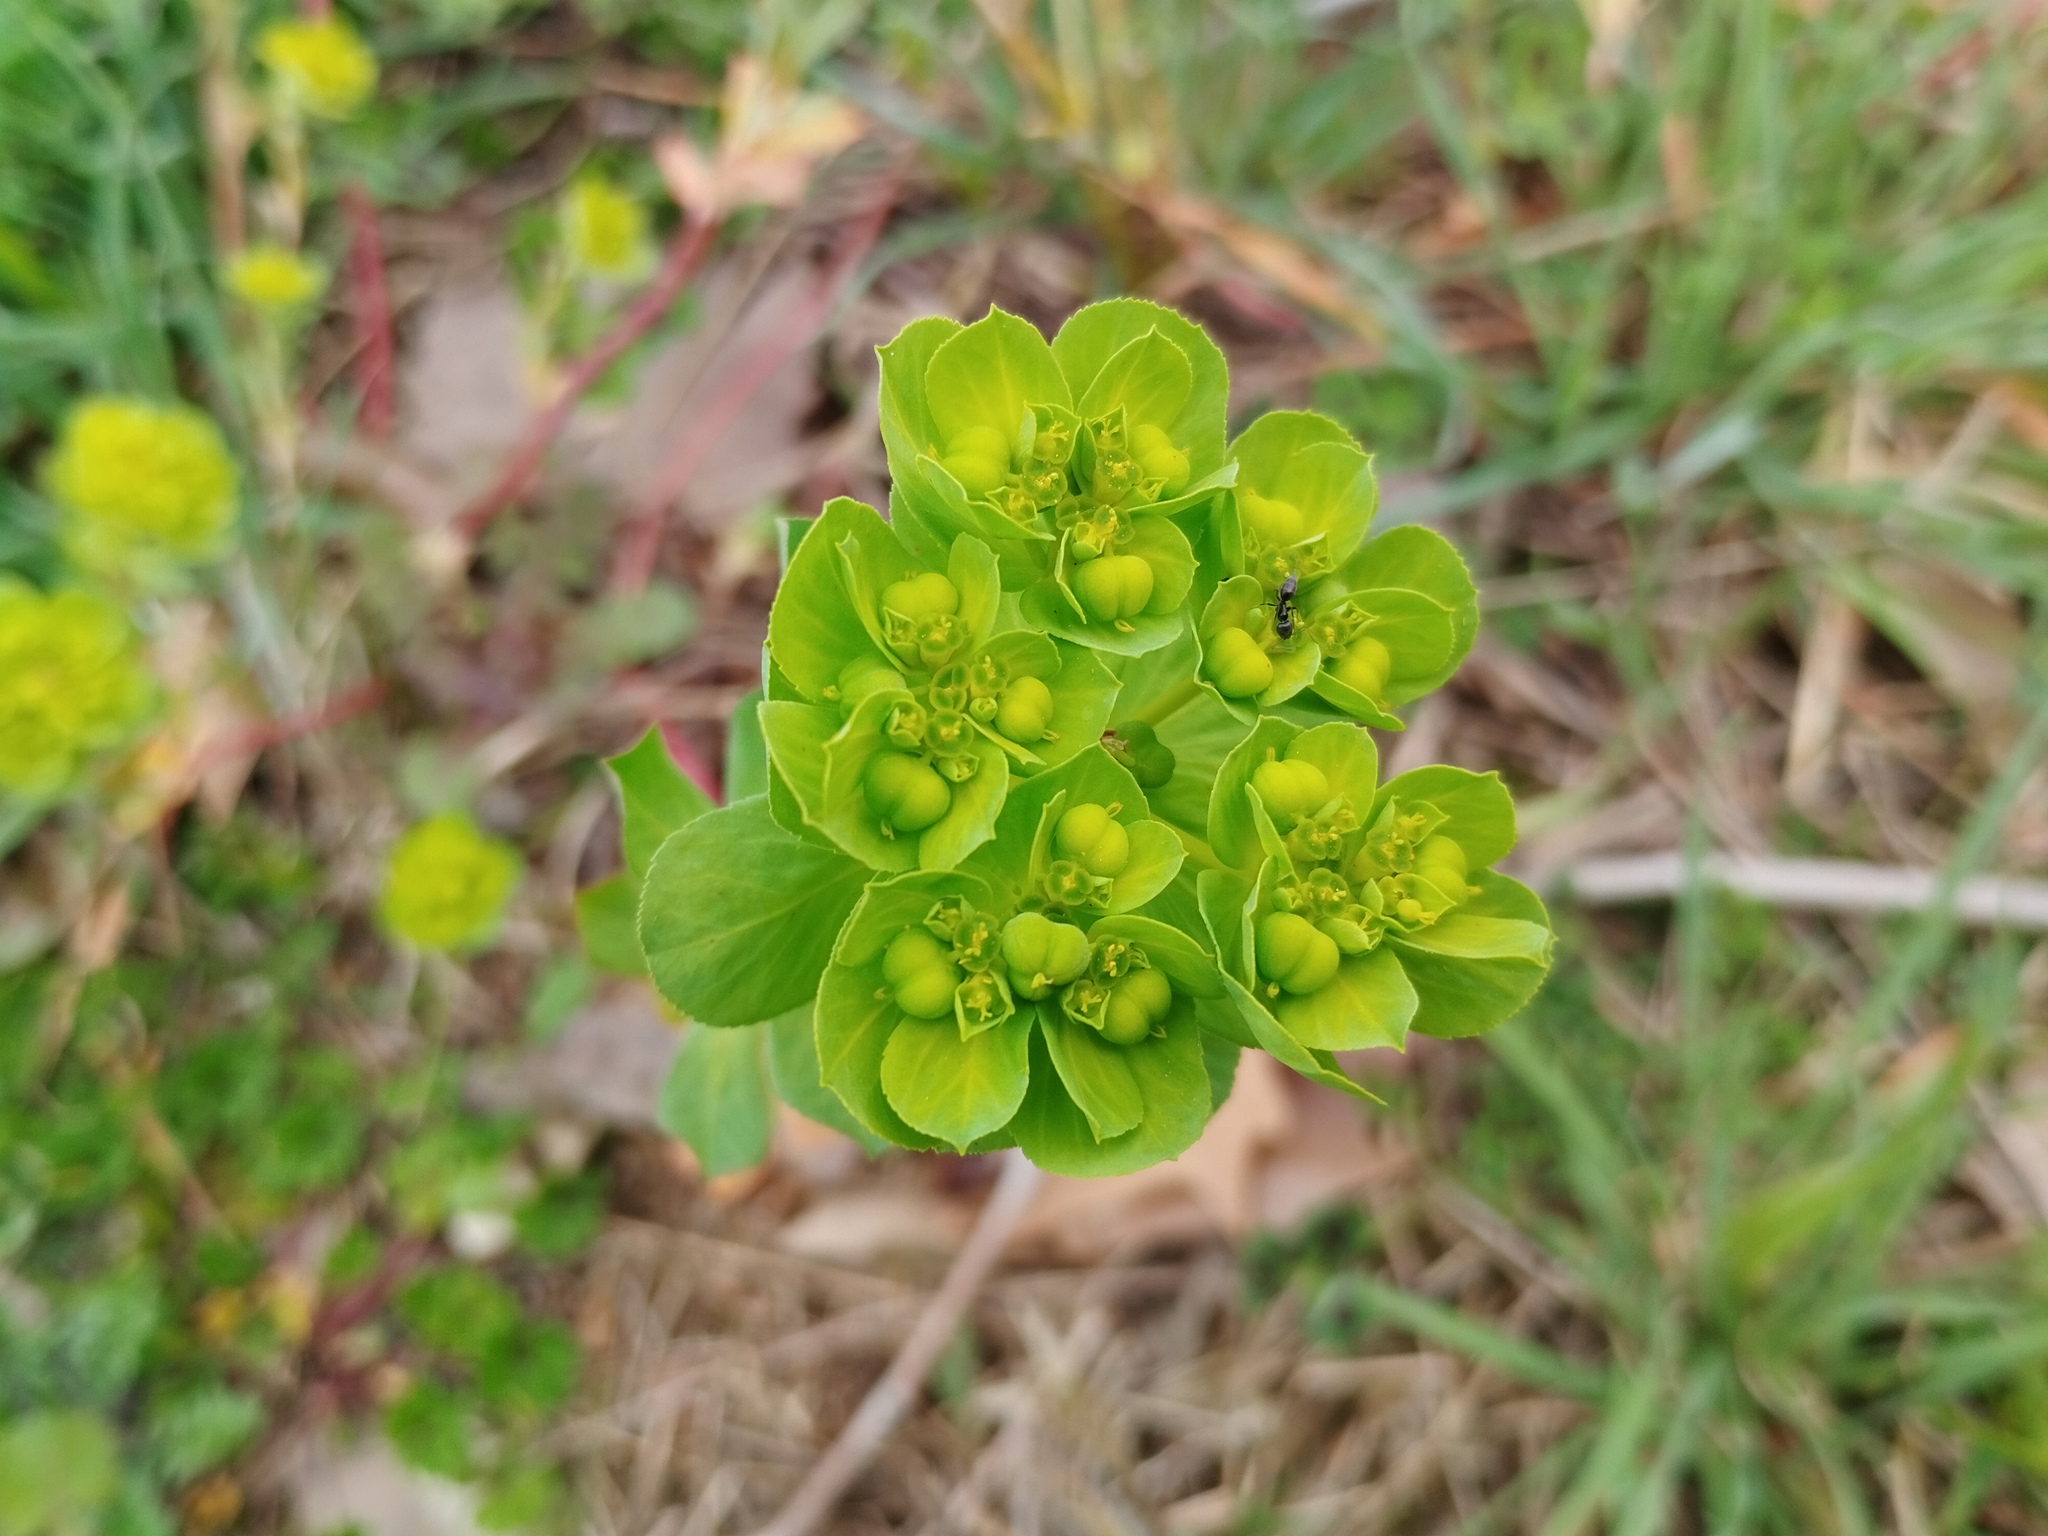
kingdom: Plantae
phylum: Tracheophyta
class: Magnoliopsida
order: Malpighiales
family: Euphorbiaceae
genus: Euphorbia
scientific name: Euphorbia helioscopia
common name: Sun spurge
